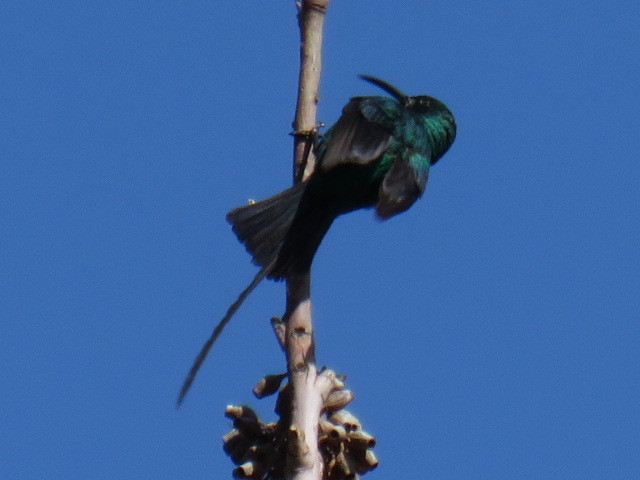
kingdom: Animalia
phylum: Chordata
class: Aves
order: Passeriformes
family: Nectariniidae
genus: Nectarinia
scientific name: Nectarinia famosa
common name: Malachite sunbird
